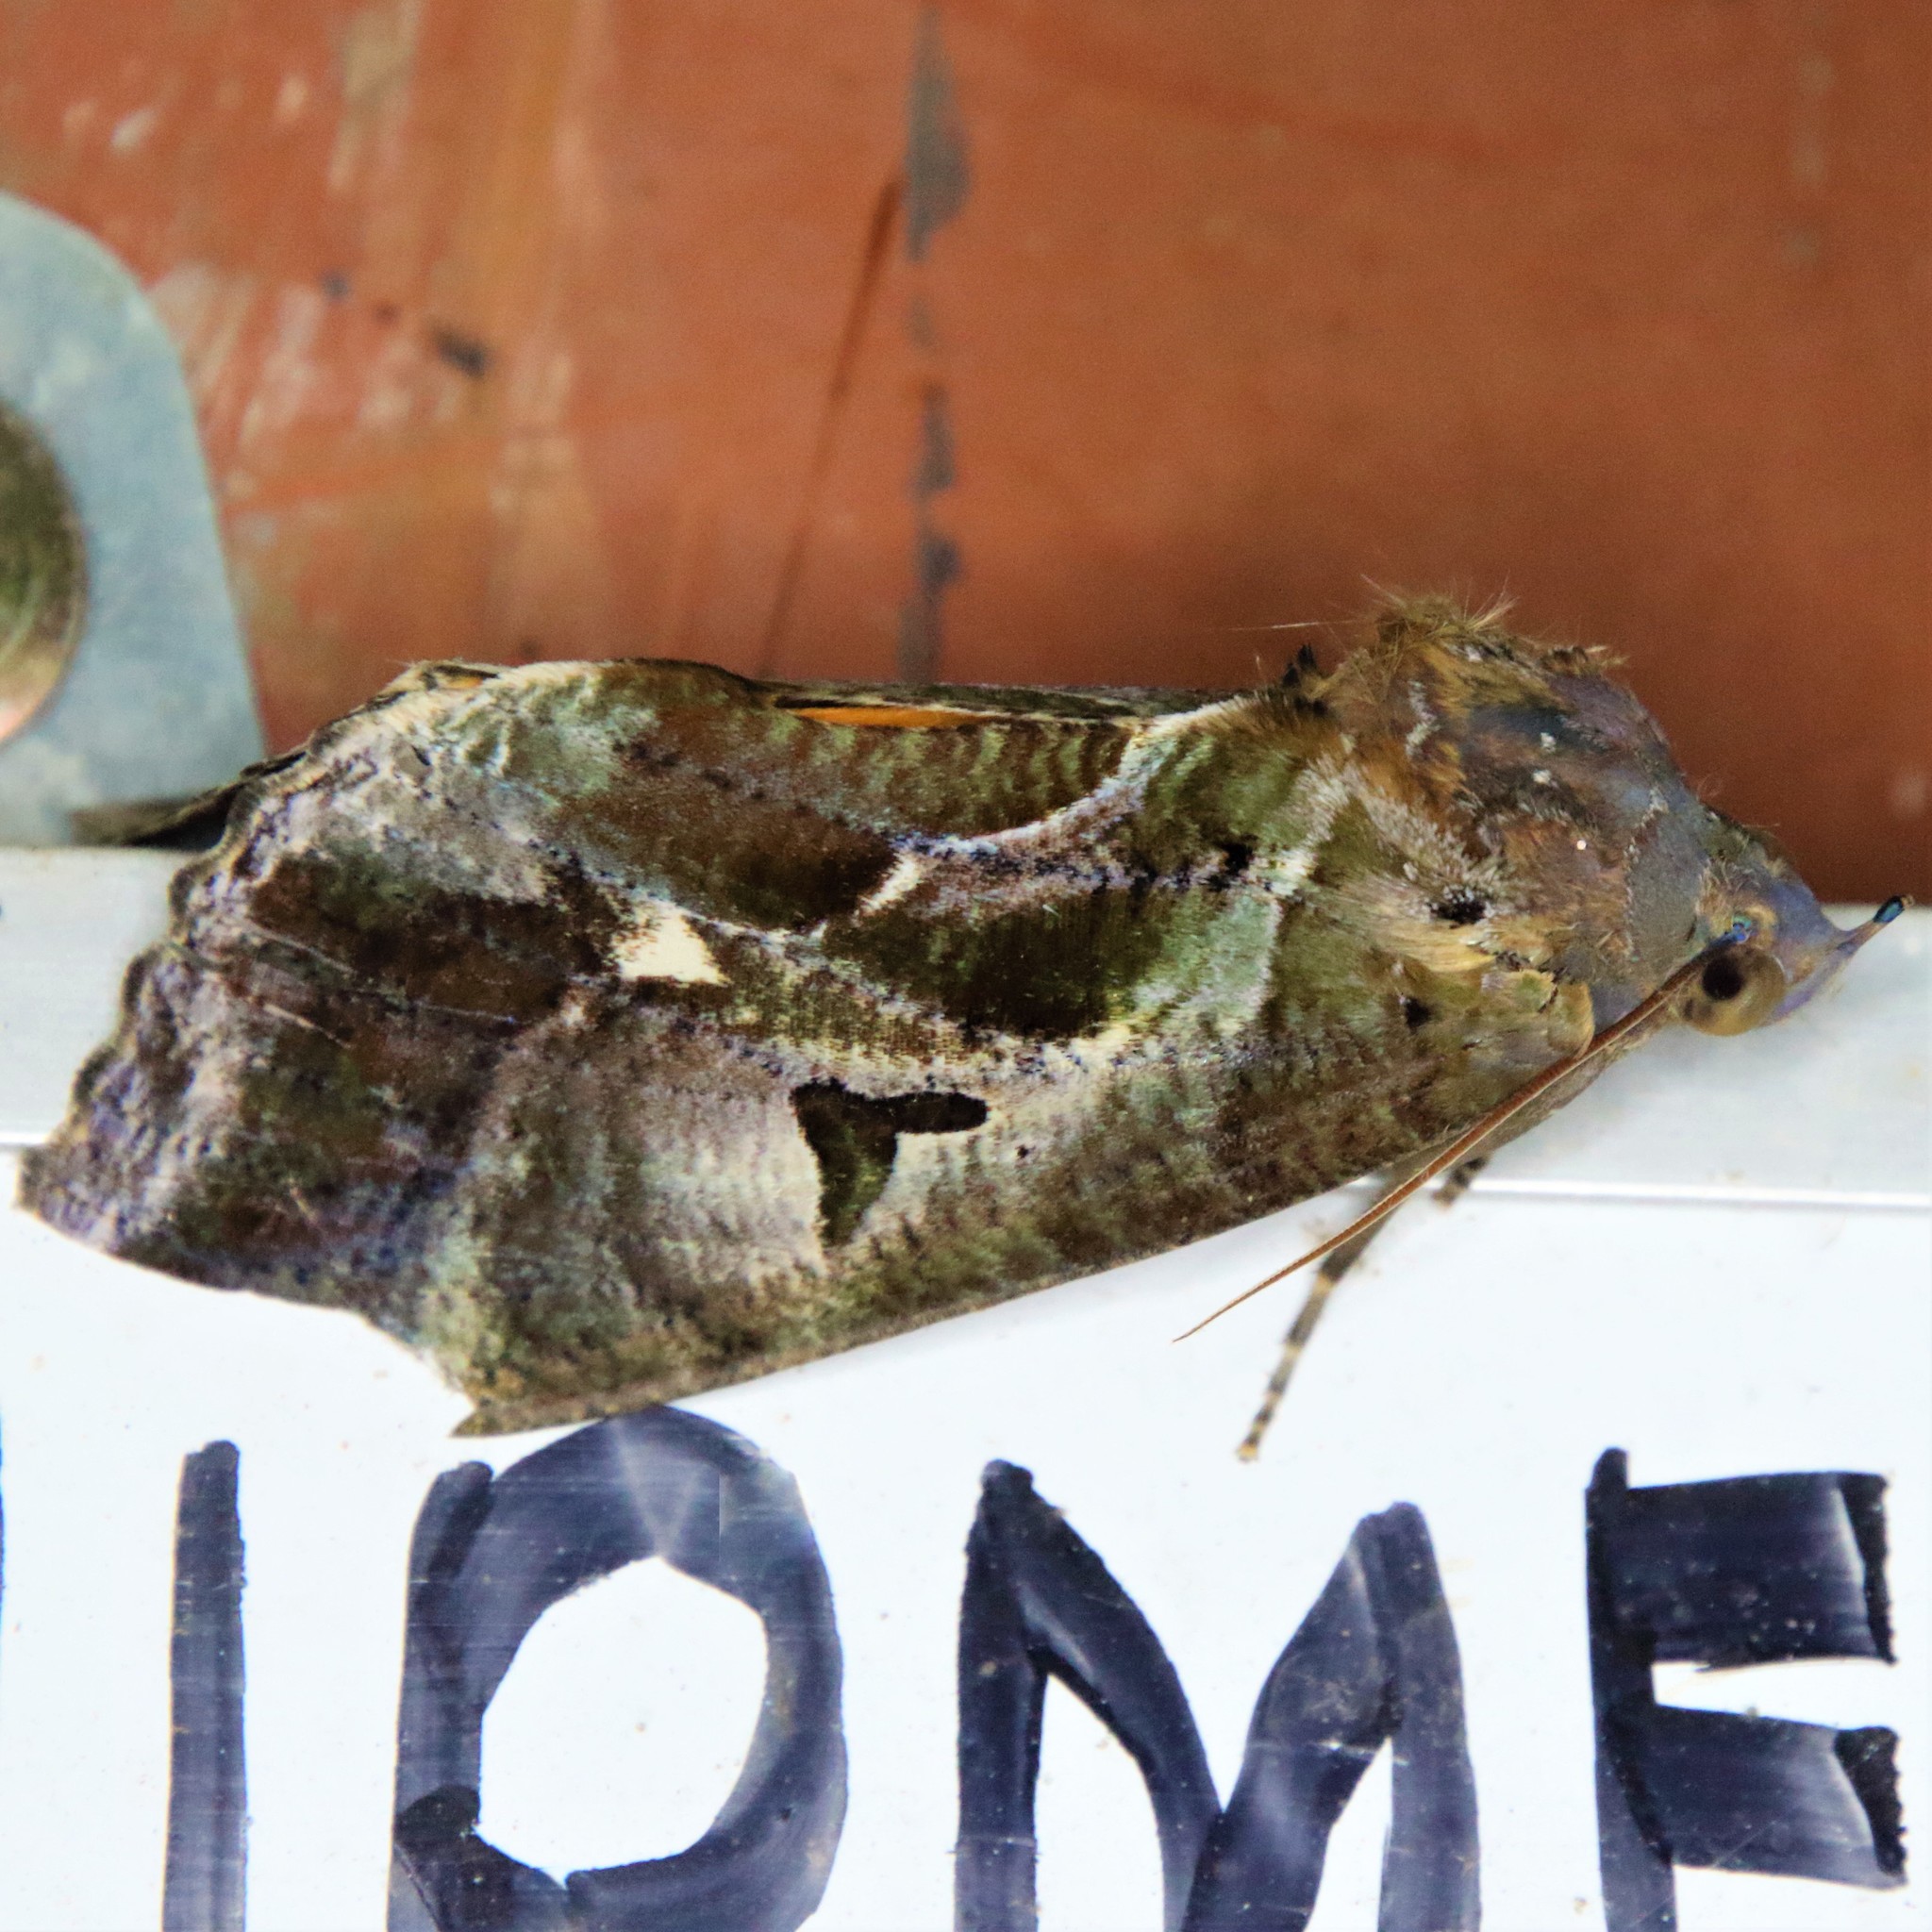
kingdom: Animalia
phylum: Arthropoda
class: Insecta
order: Lepidoptera
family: Erebidae
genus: Eudocima
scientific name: Eudocima phalonia
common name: Wasp
